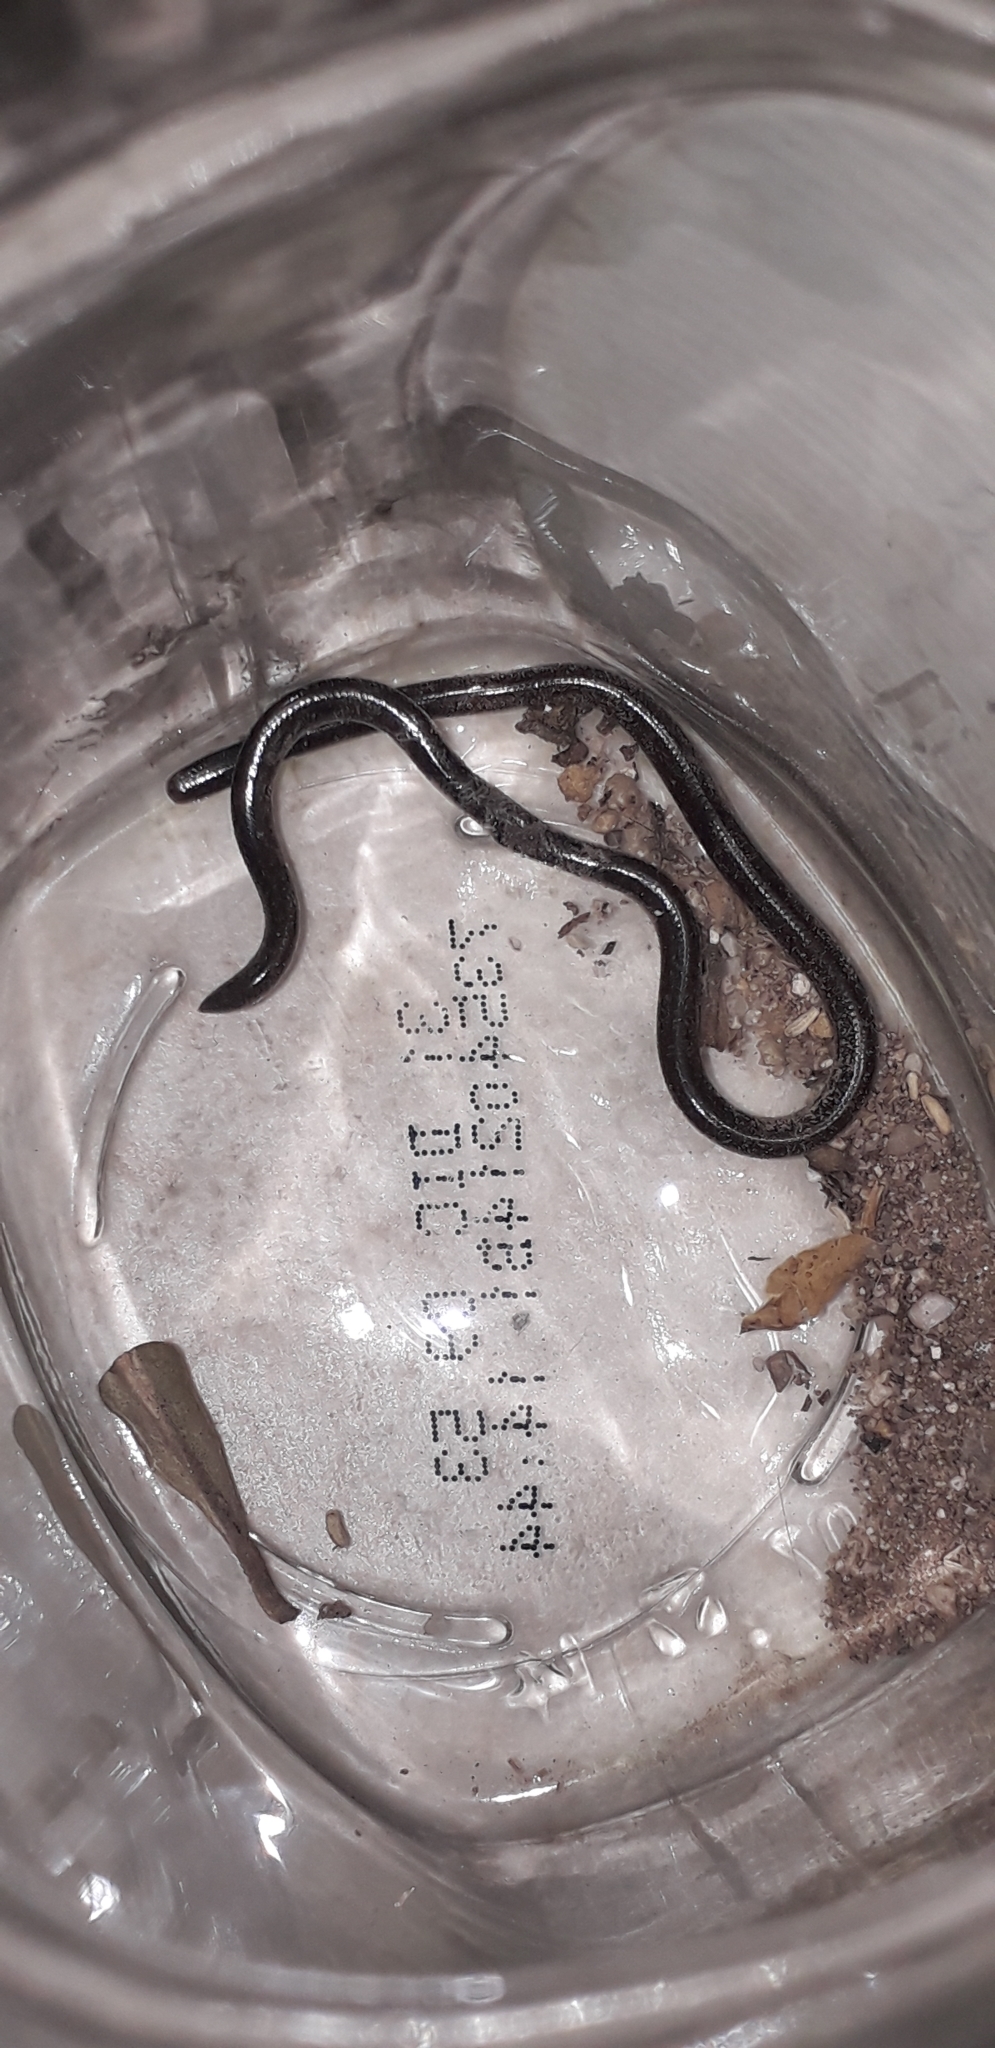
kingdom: Animalia
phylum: Chordata
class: Squamata
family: Typhlopidae
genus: Indotyphlops
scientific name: Indotyphlops braminus
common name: Brahminy blindsnake
